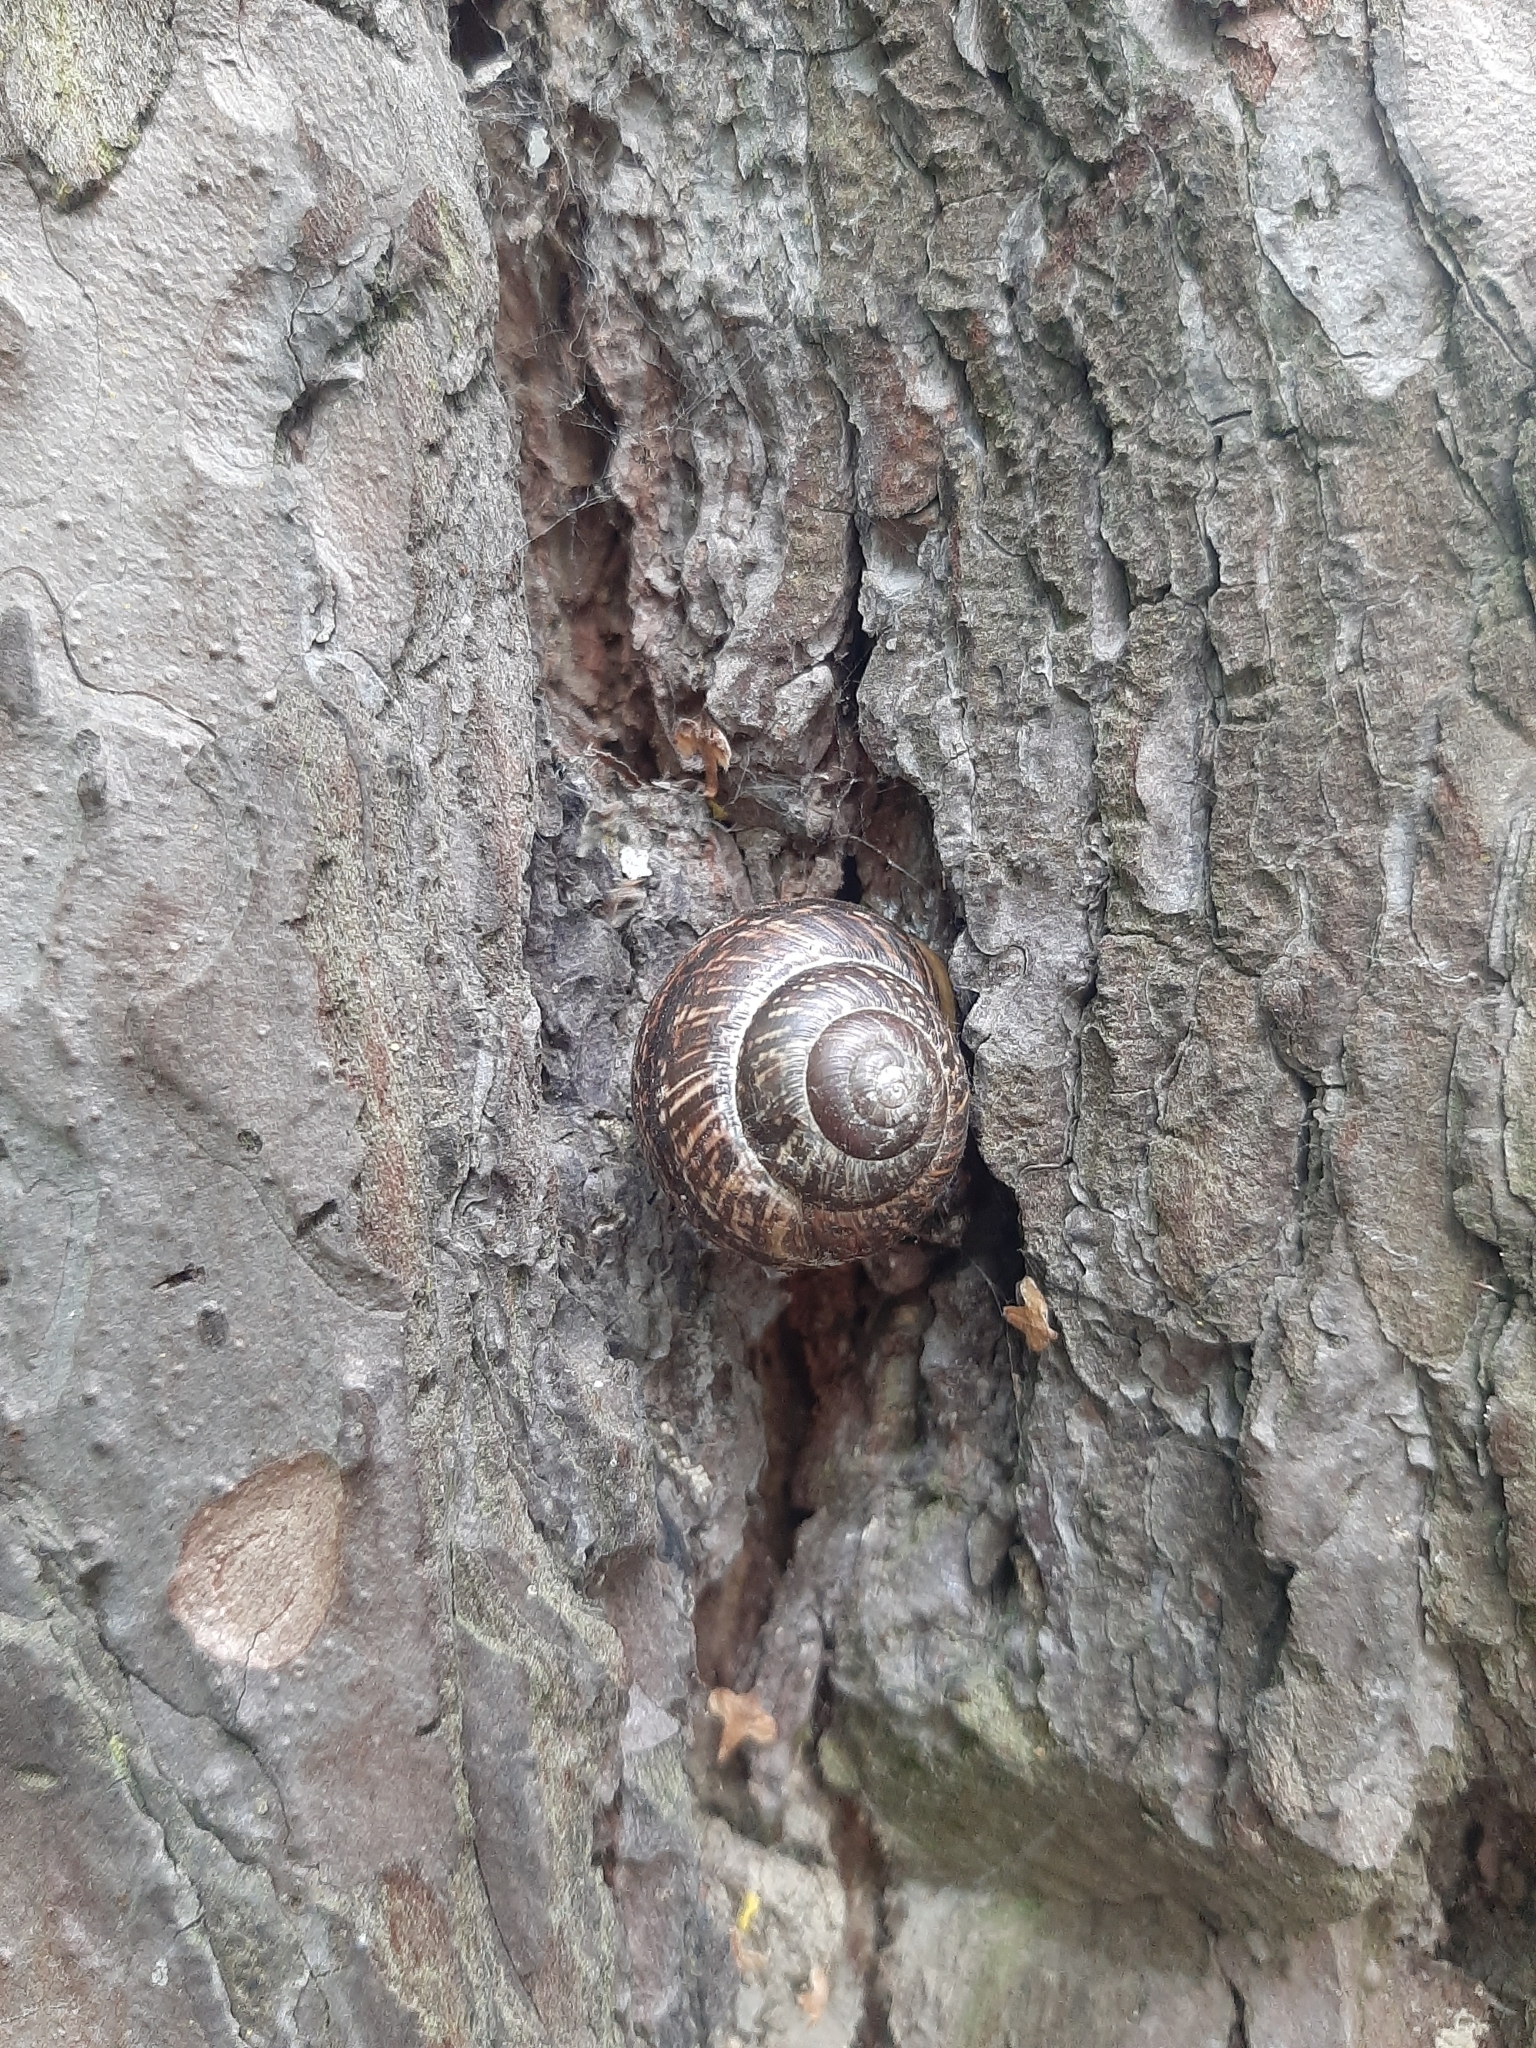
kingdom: Animalia
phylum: Mollusca
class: Gastropoda
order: Stylommatophora
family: Helicidae
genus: Arianta
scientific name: Arianta arbustorum
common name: Copse snail
